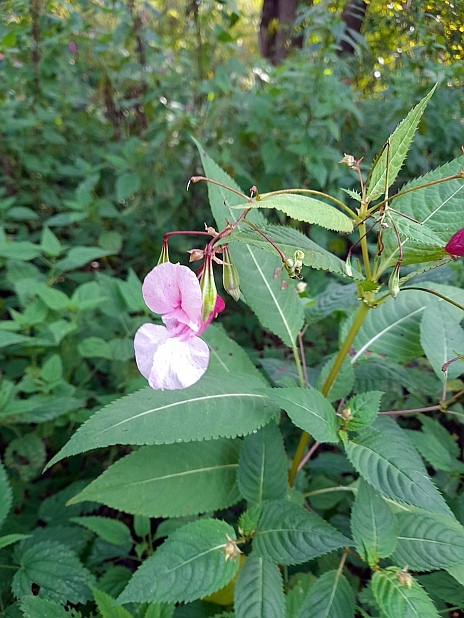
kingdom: Plantae
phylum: Tracheophyta
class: Magnoliopsida
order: Ericales
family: Balsaminaceae
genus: Impatiens
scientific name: Impatiens glandulifera
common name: Himalayan balsam
